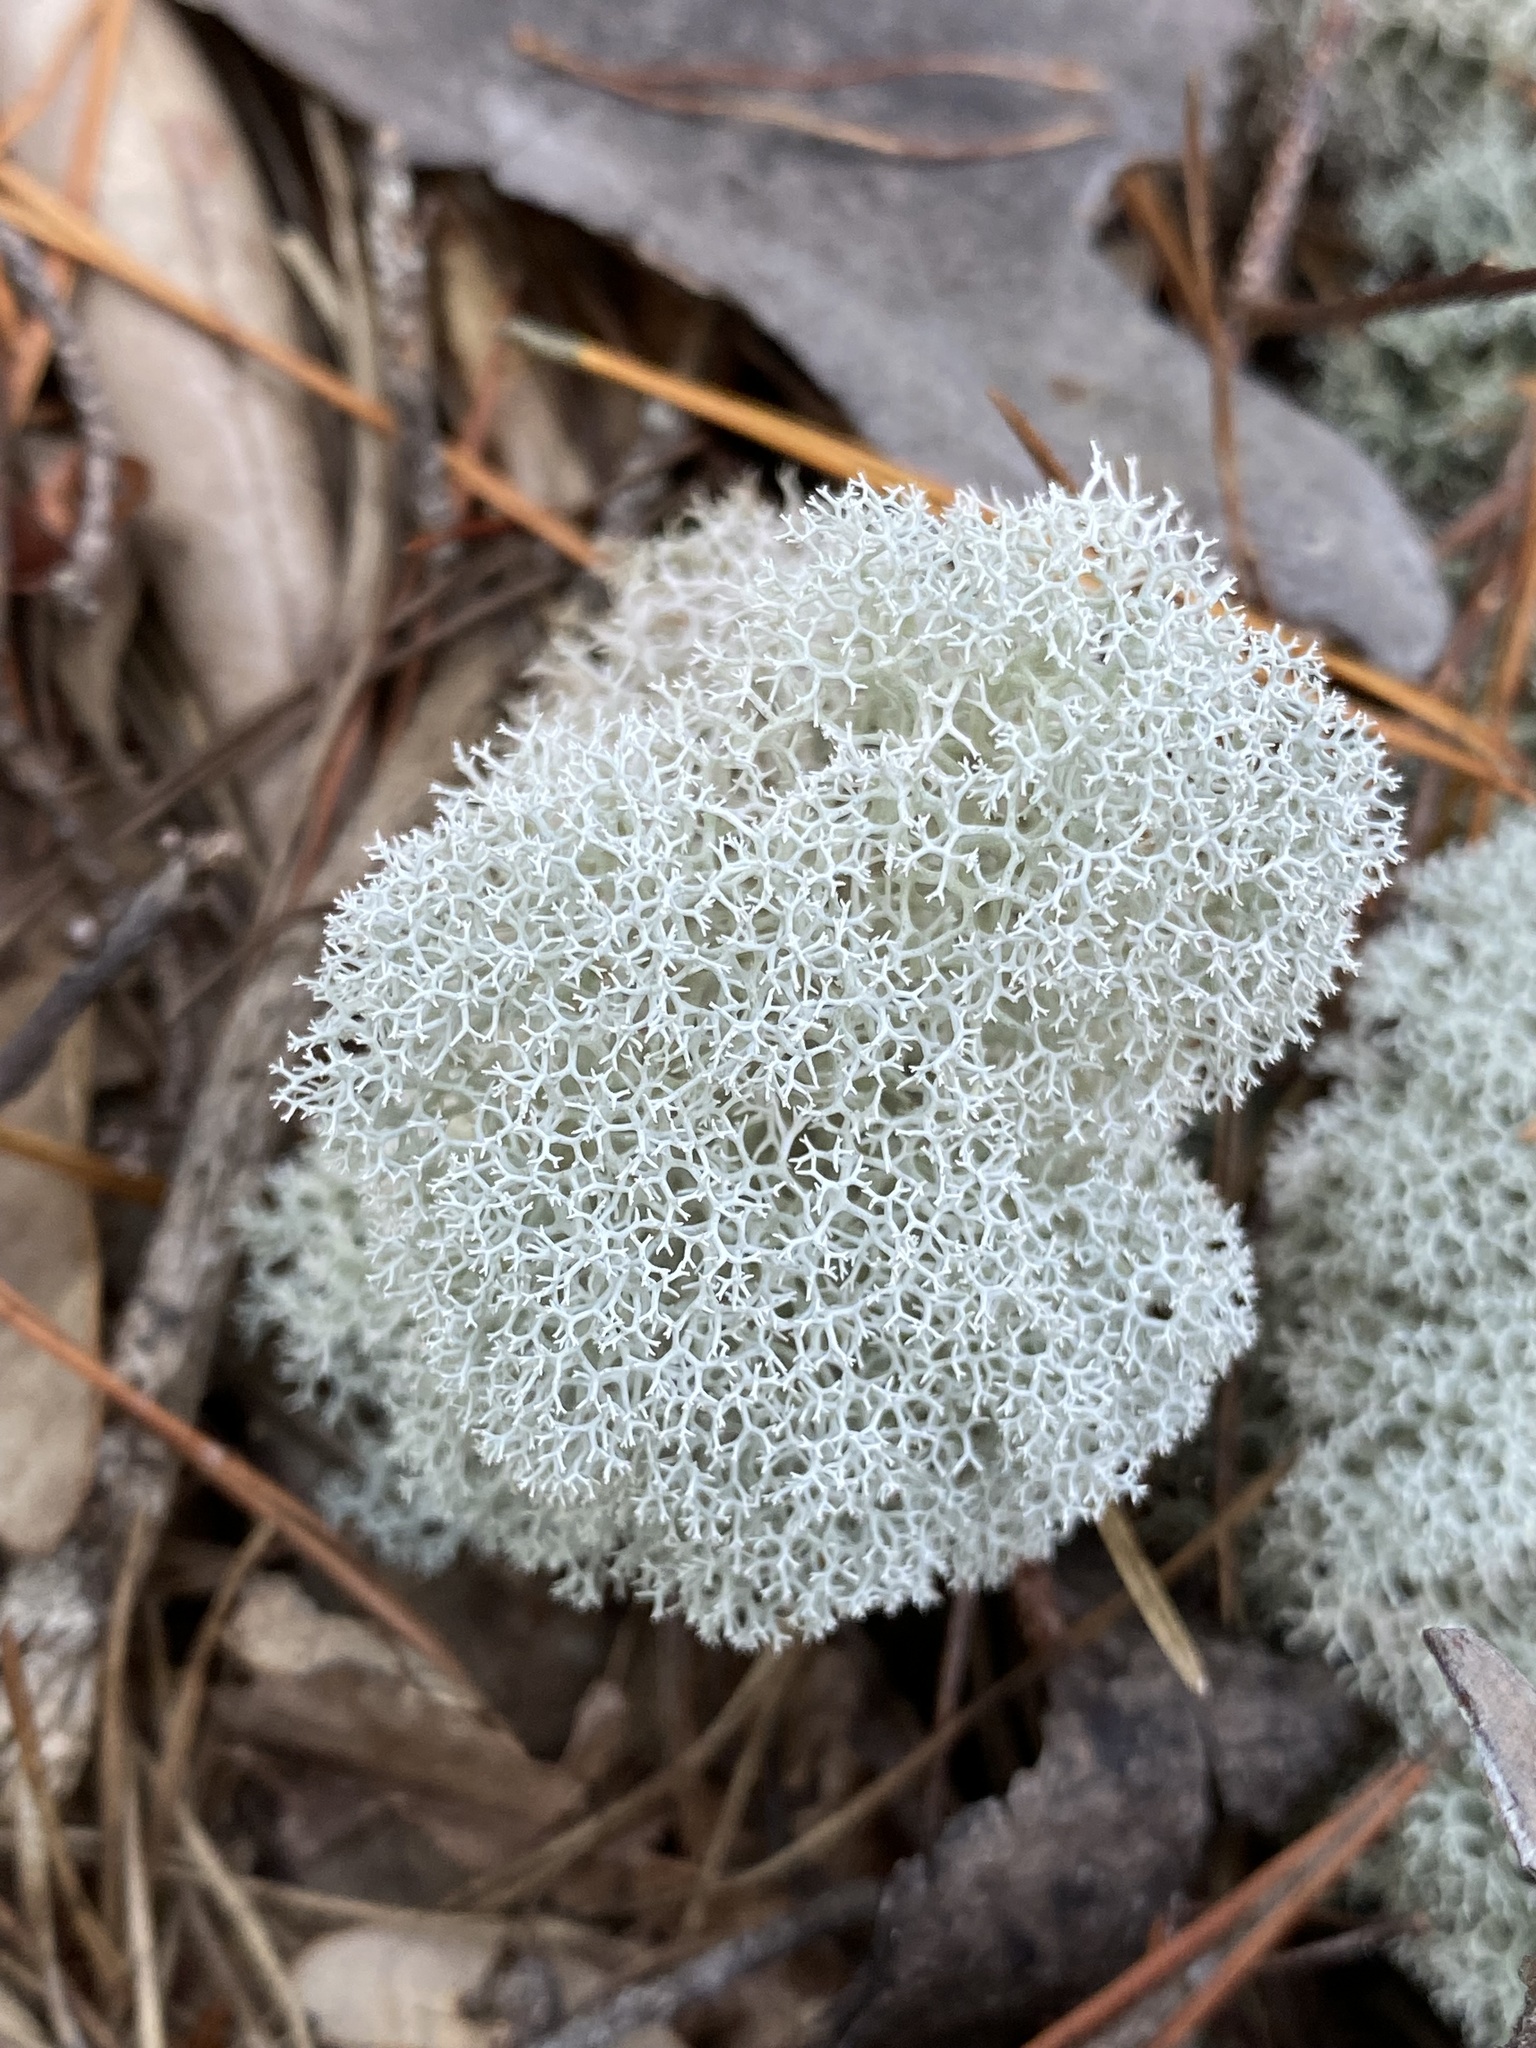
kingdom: Fungi
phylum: Ascomycota
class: Lecanoromycetes
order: Lecanorales
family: Cladoniaceae
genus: Cladonia
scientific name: Cladonia evansii
